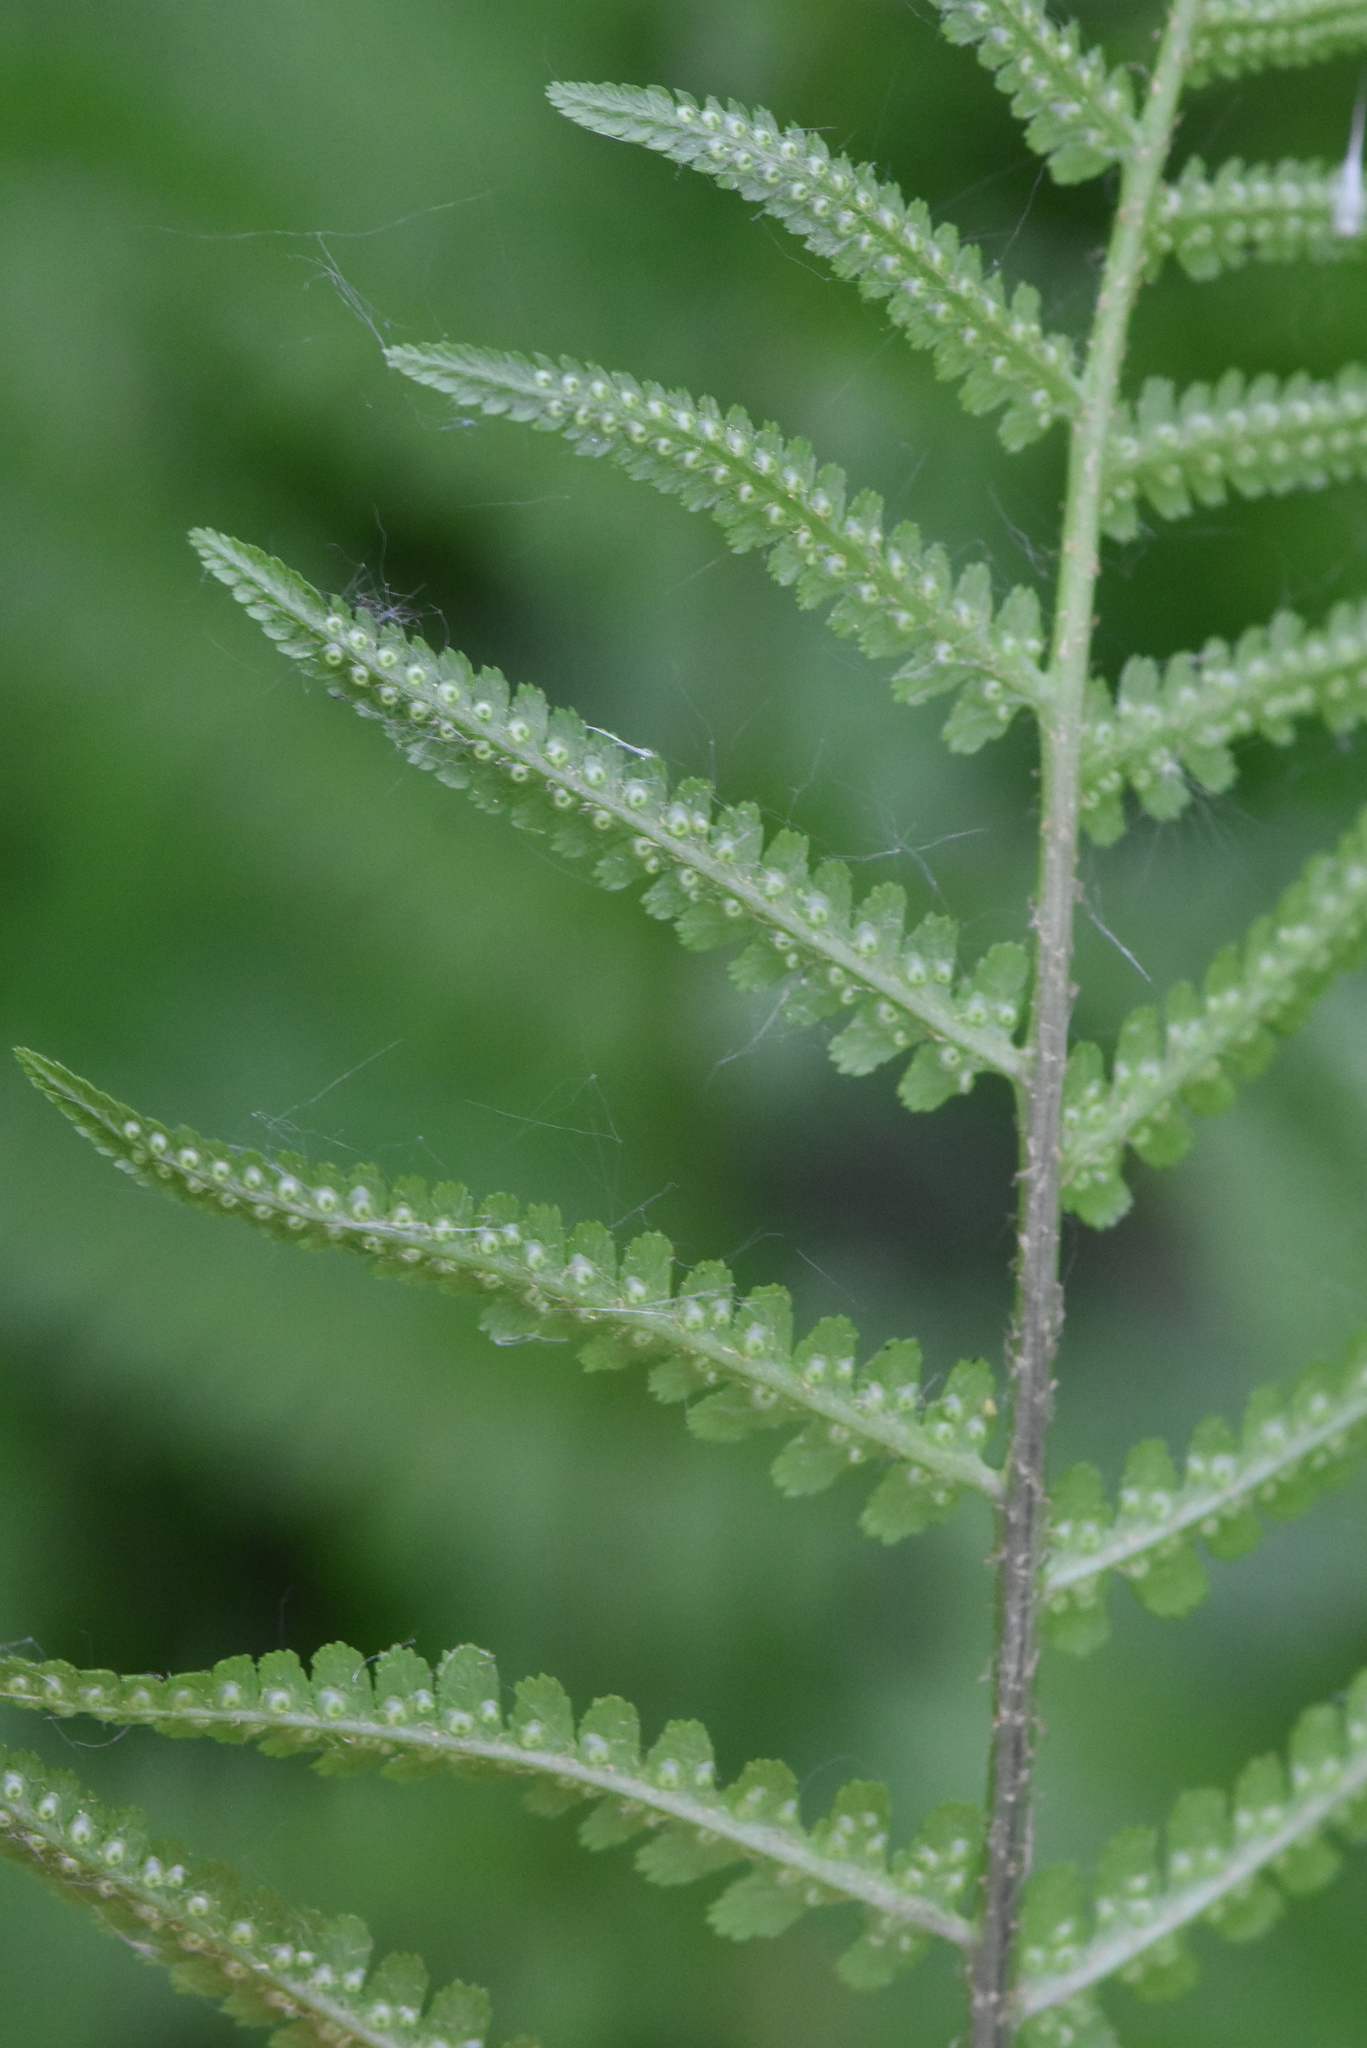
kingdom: Plantae
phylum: Tracheophyta
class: Polypodiopsida
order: Polypodiales
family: Dryopteridaceae
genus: Dryopteris
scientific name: Dryopteris filix-mas
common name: Male fern
